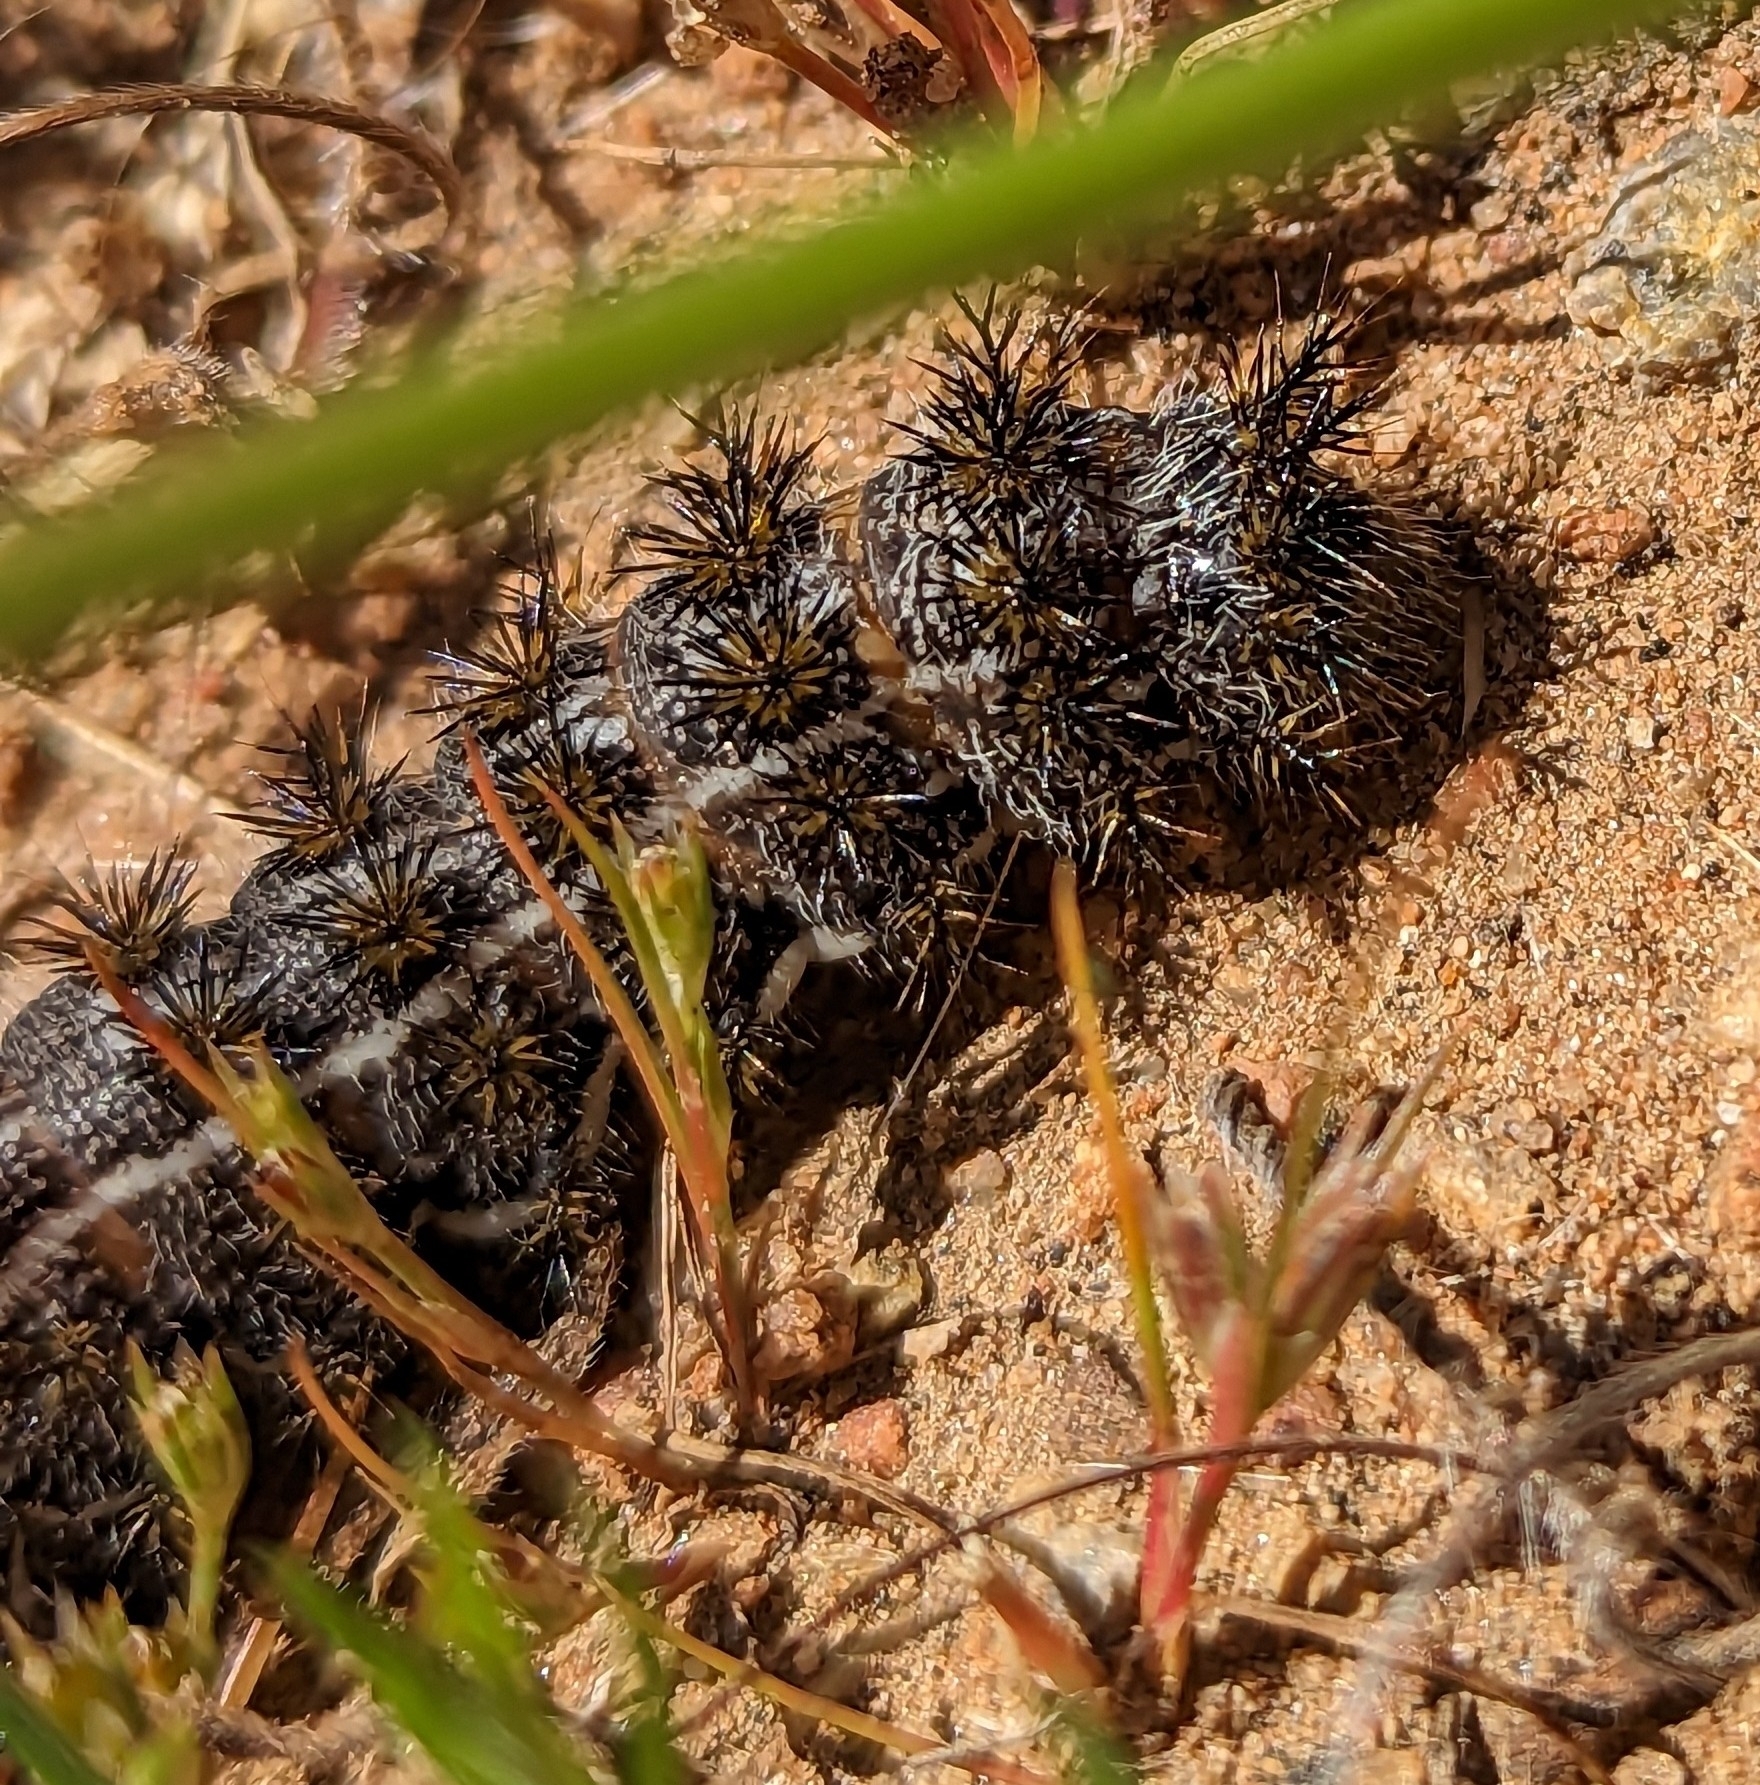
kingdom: Animalia
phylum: Arthropoda
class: Insecta
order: Lepidoptera
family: Saturniidae
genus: Hemileuca
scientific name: Hemileuca electra
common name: Electra buckmoth
